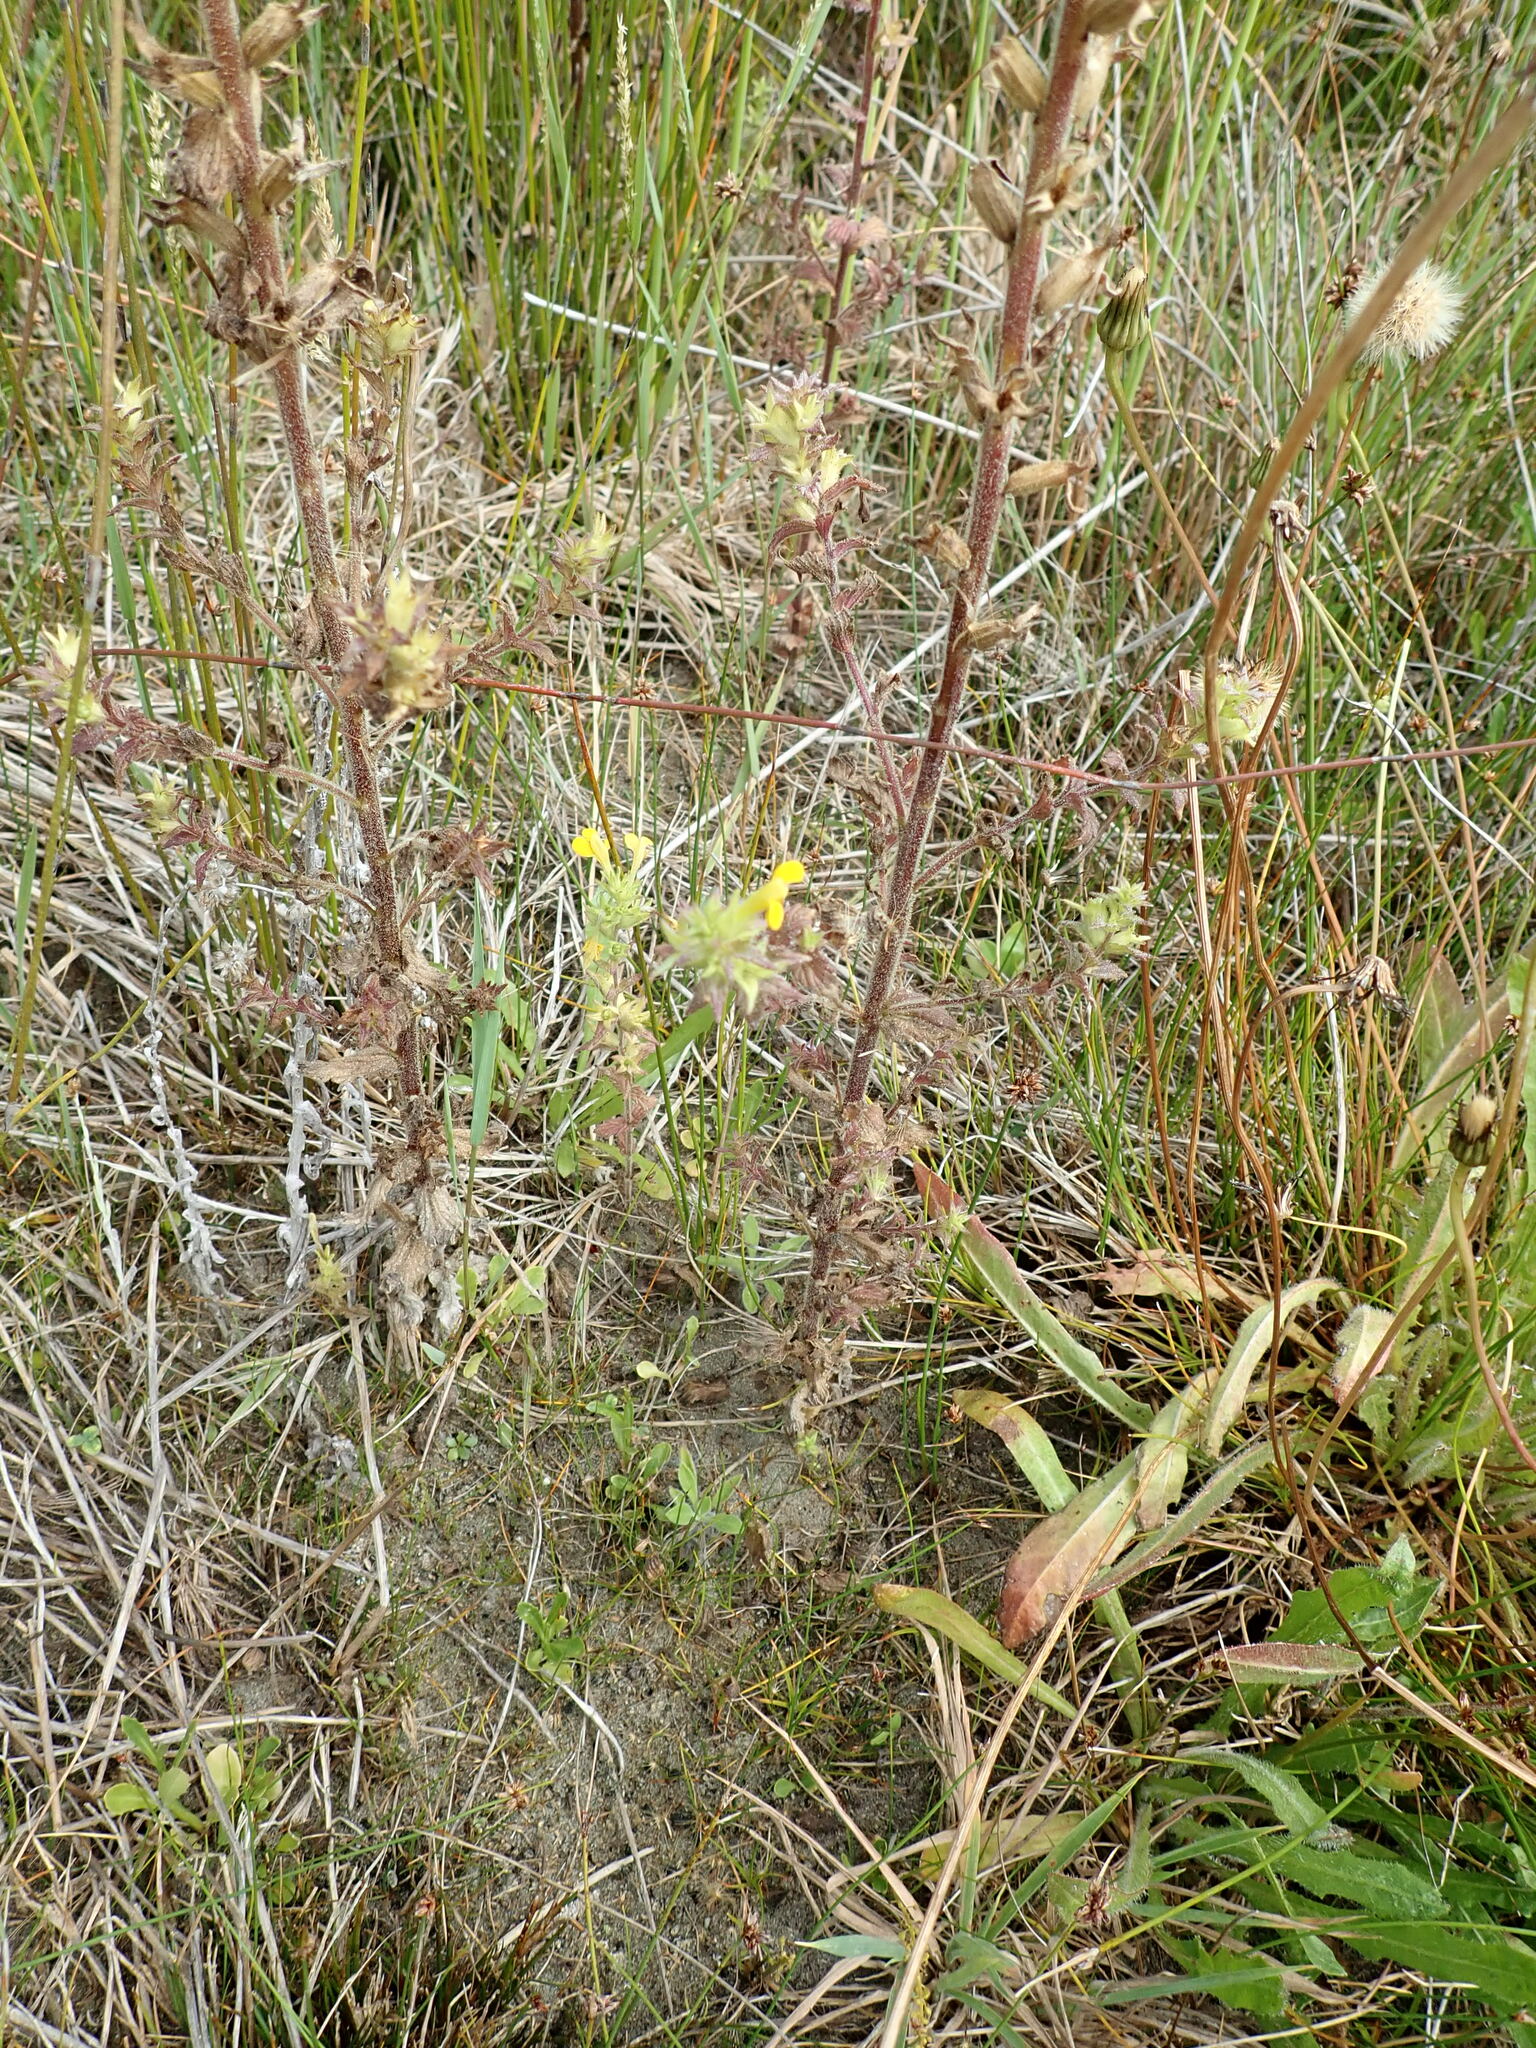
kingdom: Plantae
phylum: Tracheophyta
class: Magnoliopsida
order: Lamiales
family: Orobanchaceae
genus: Bellardia
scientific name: Bellardia viscosa
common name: Sticky parentucellia
